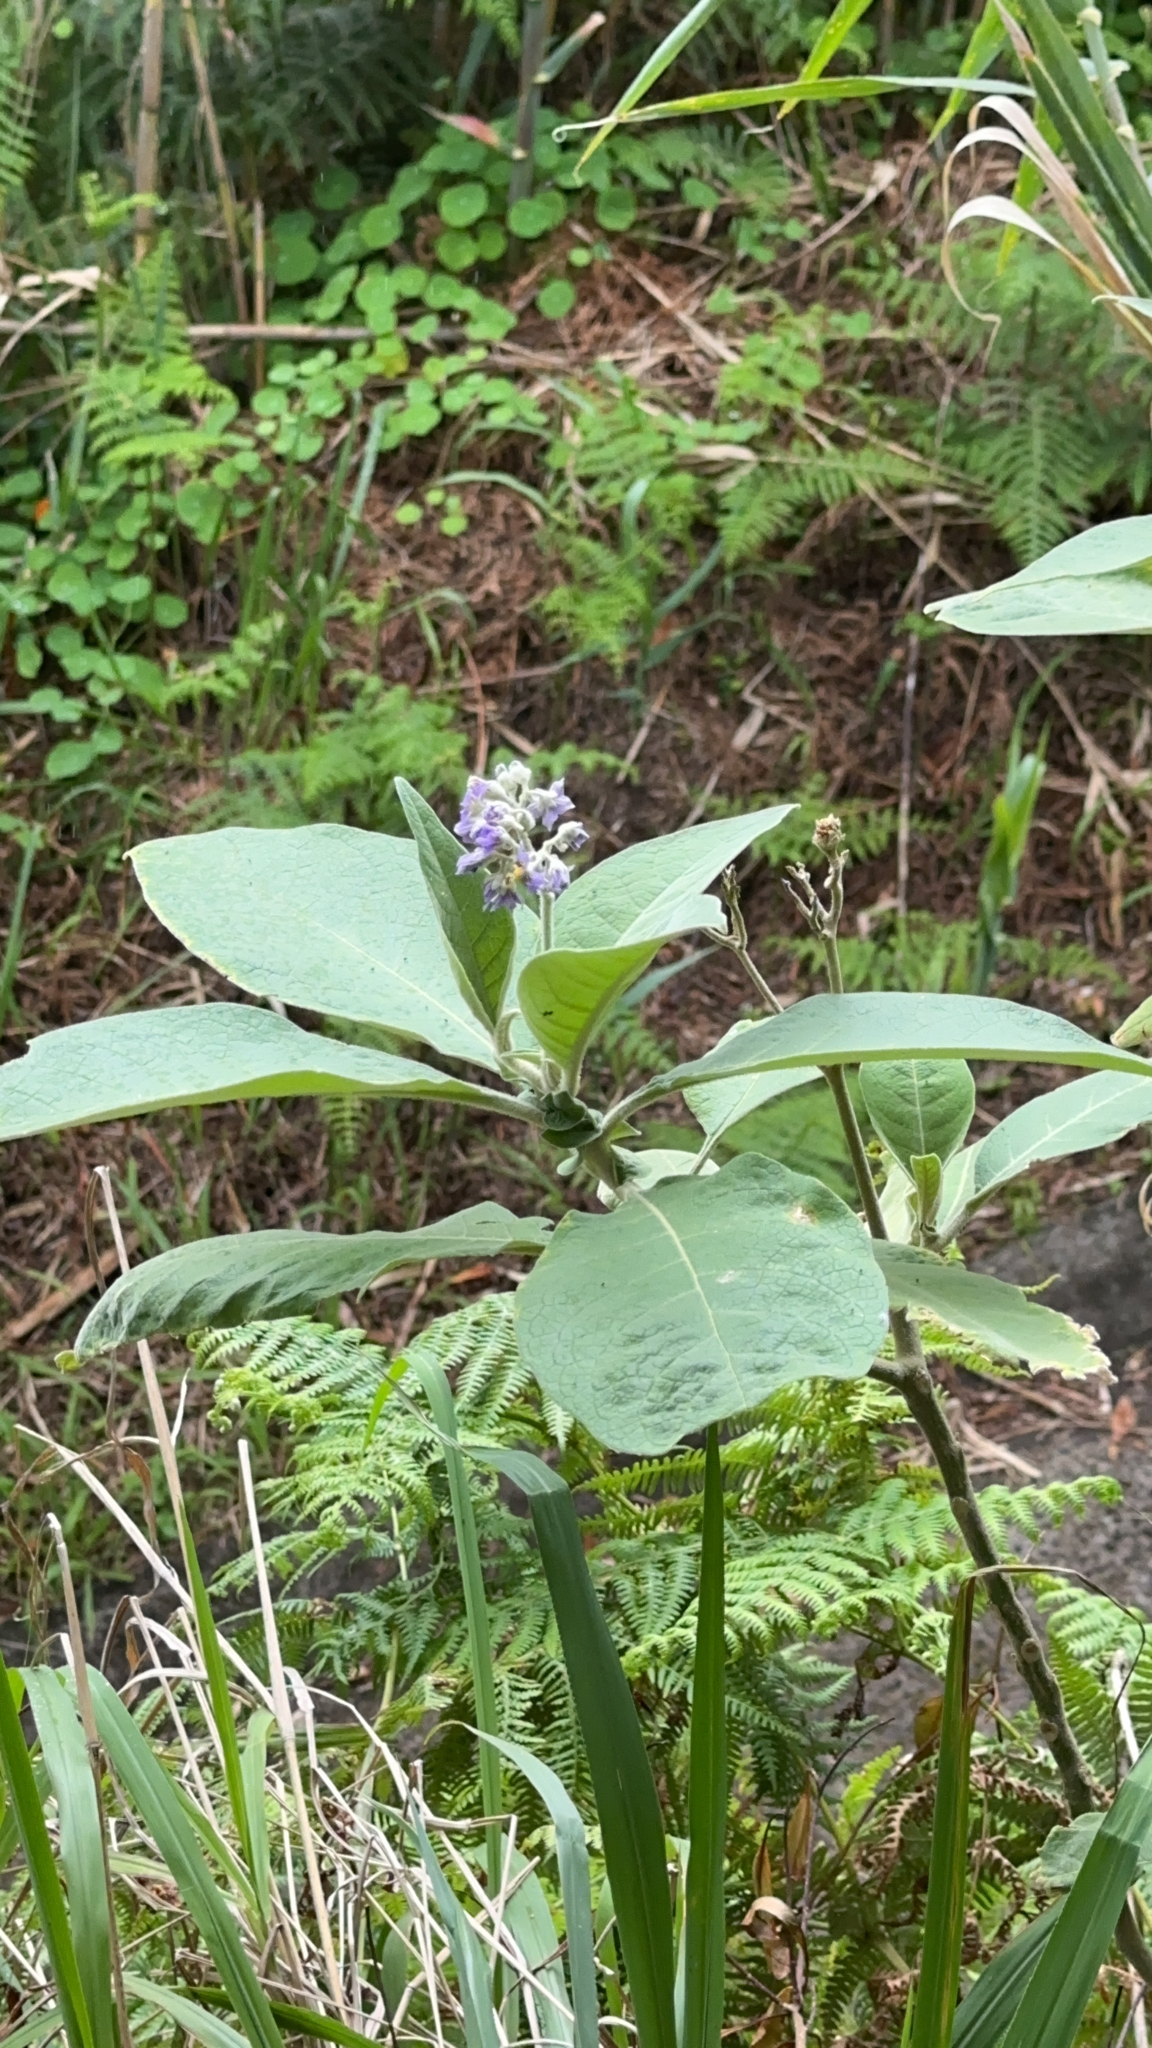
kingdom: Plantae
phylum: Tracheophyta
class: Magnoliopsida
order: Solanales
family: Solanaceae
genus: Solanum
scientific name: Solanum mauritianum
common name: Earleaf nightshade
